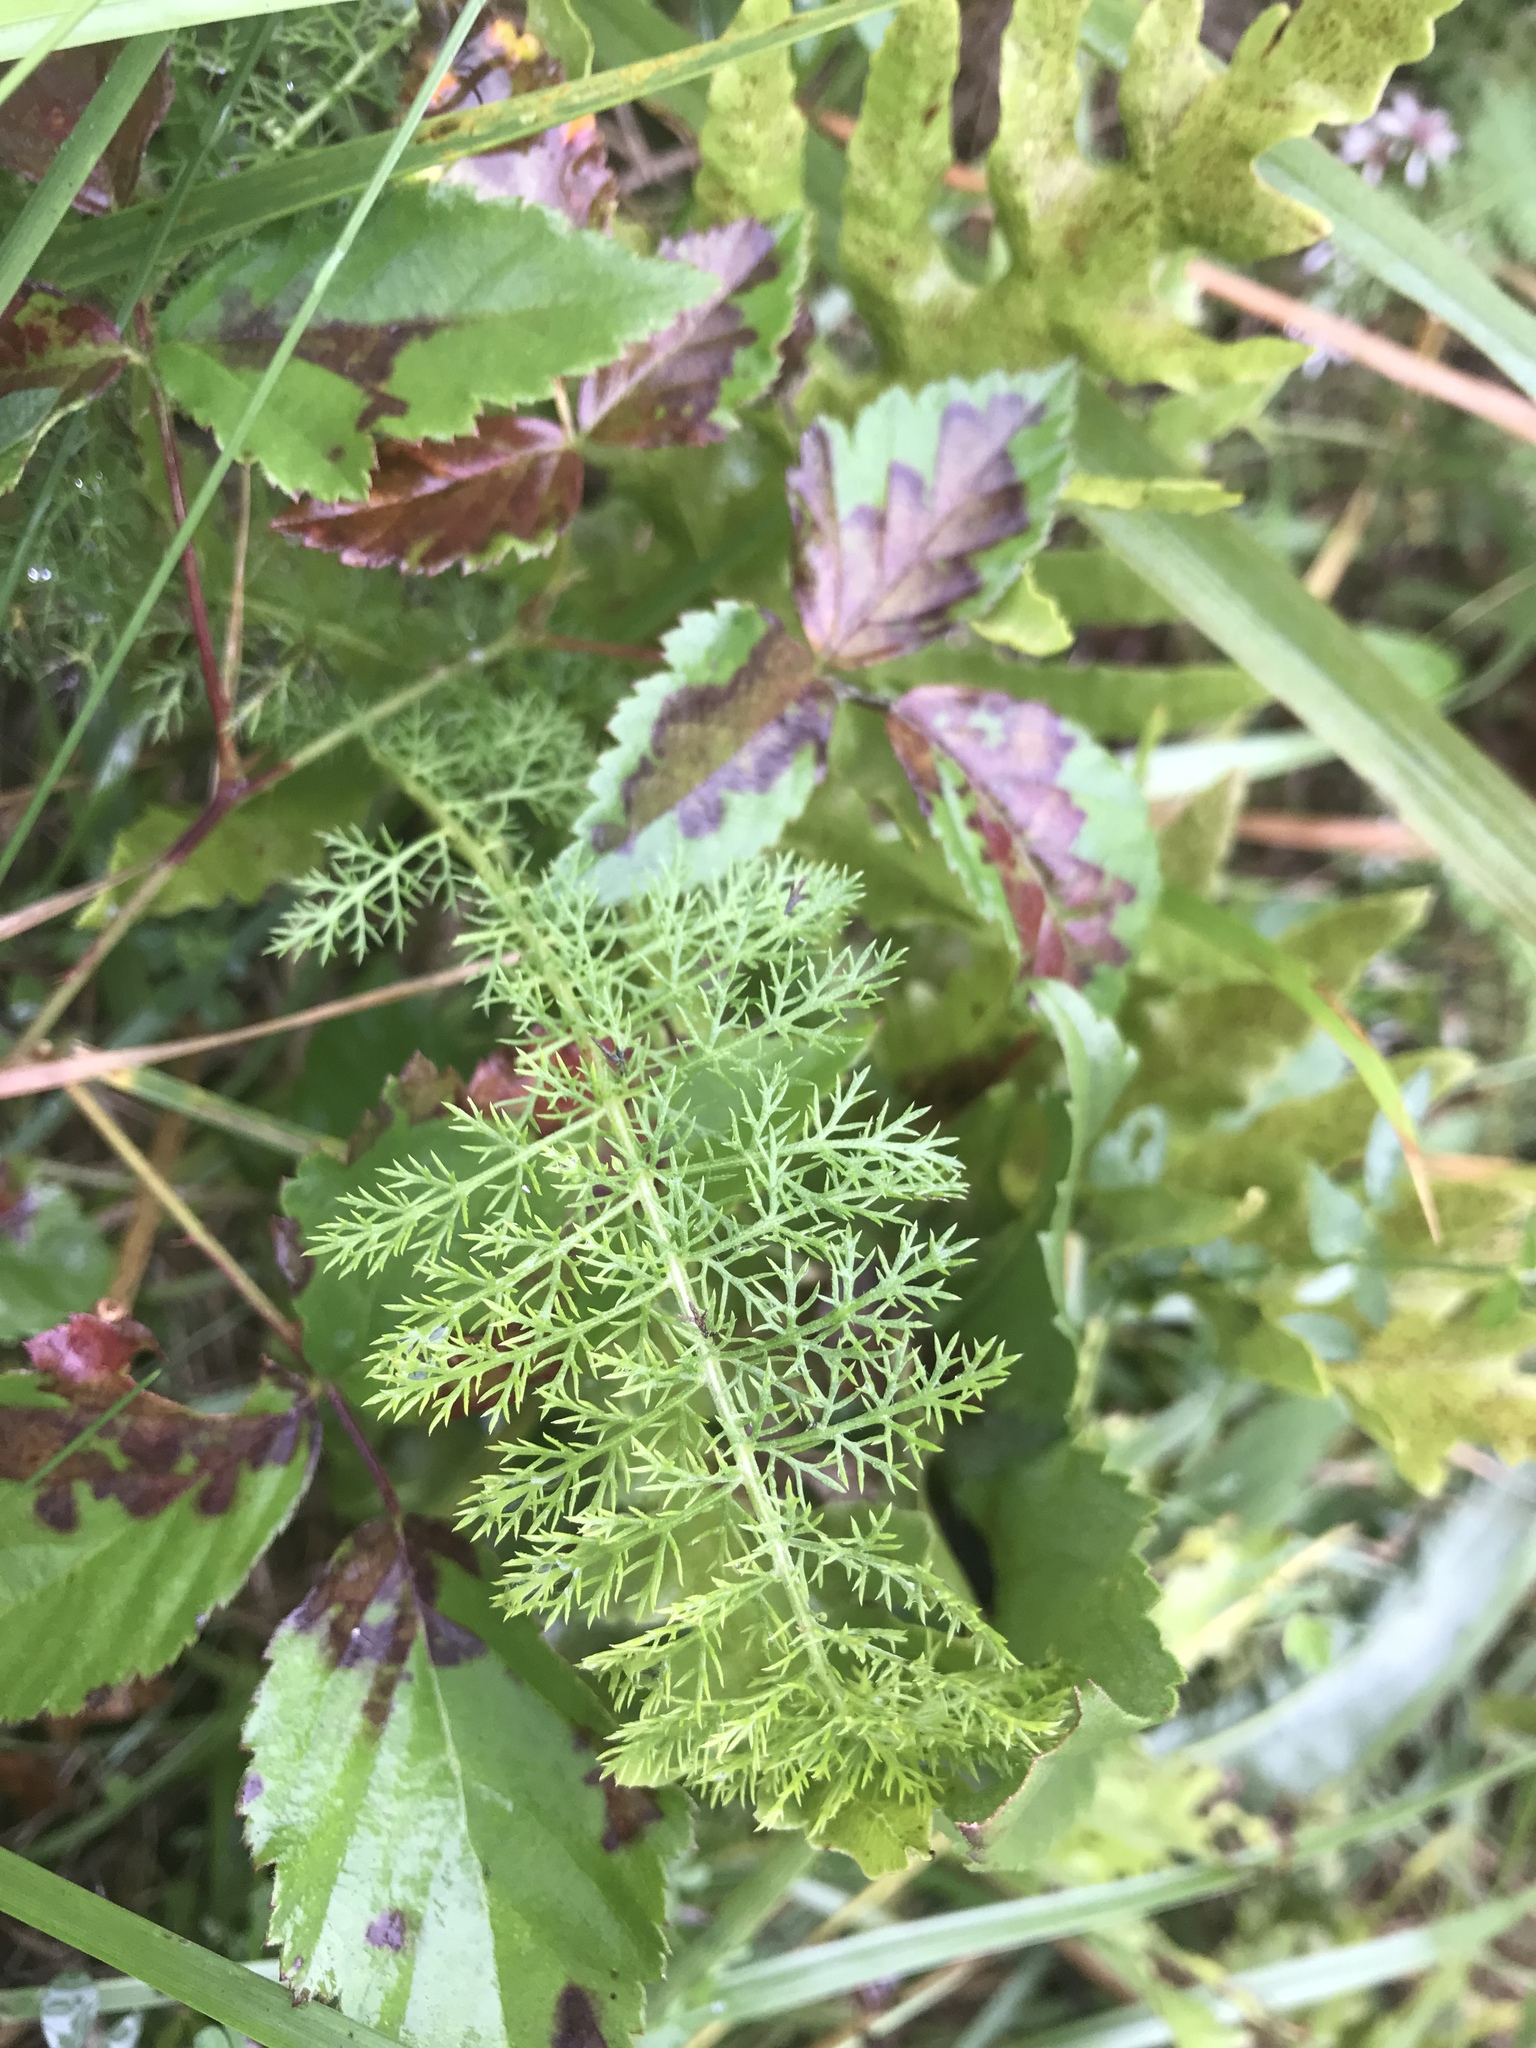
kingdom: Plantae
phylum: Tracheophyta
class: Magnoliopsida
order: Asterales
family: Asteraceae
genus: Achillea
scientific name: Achillea millefolium
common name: Yarrow
